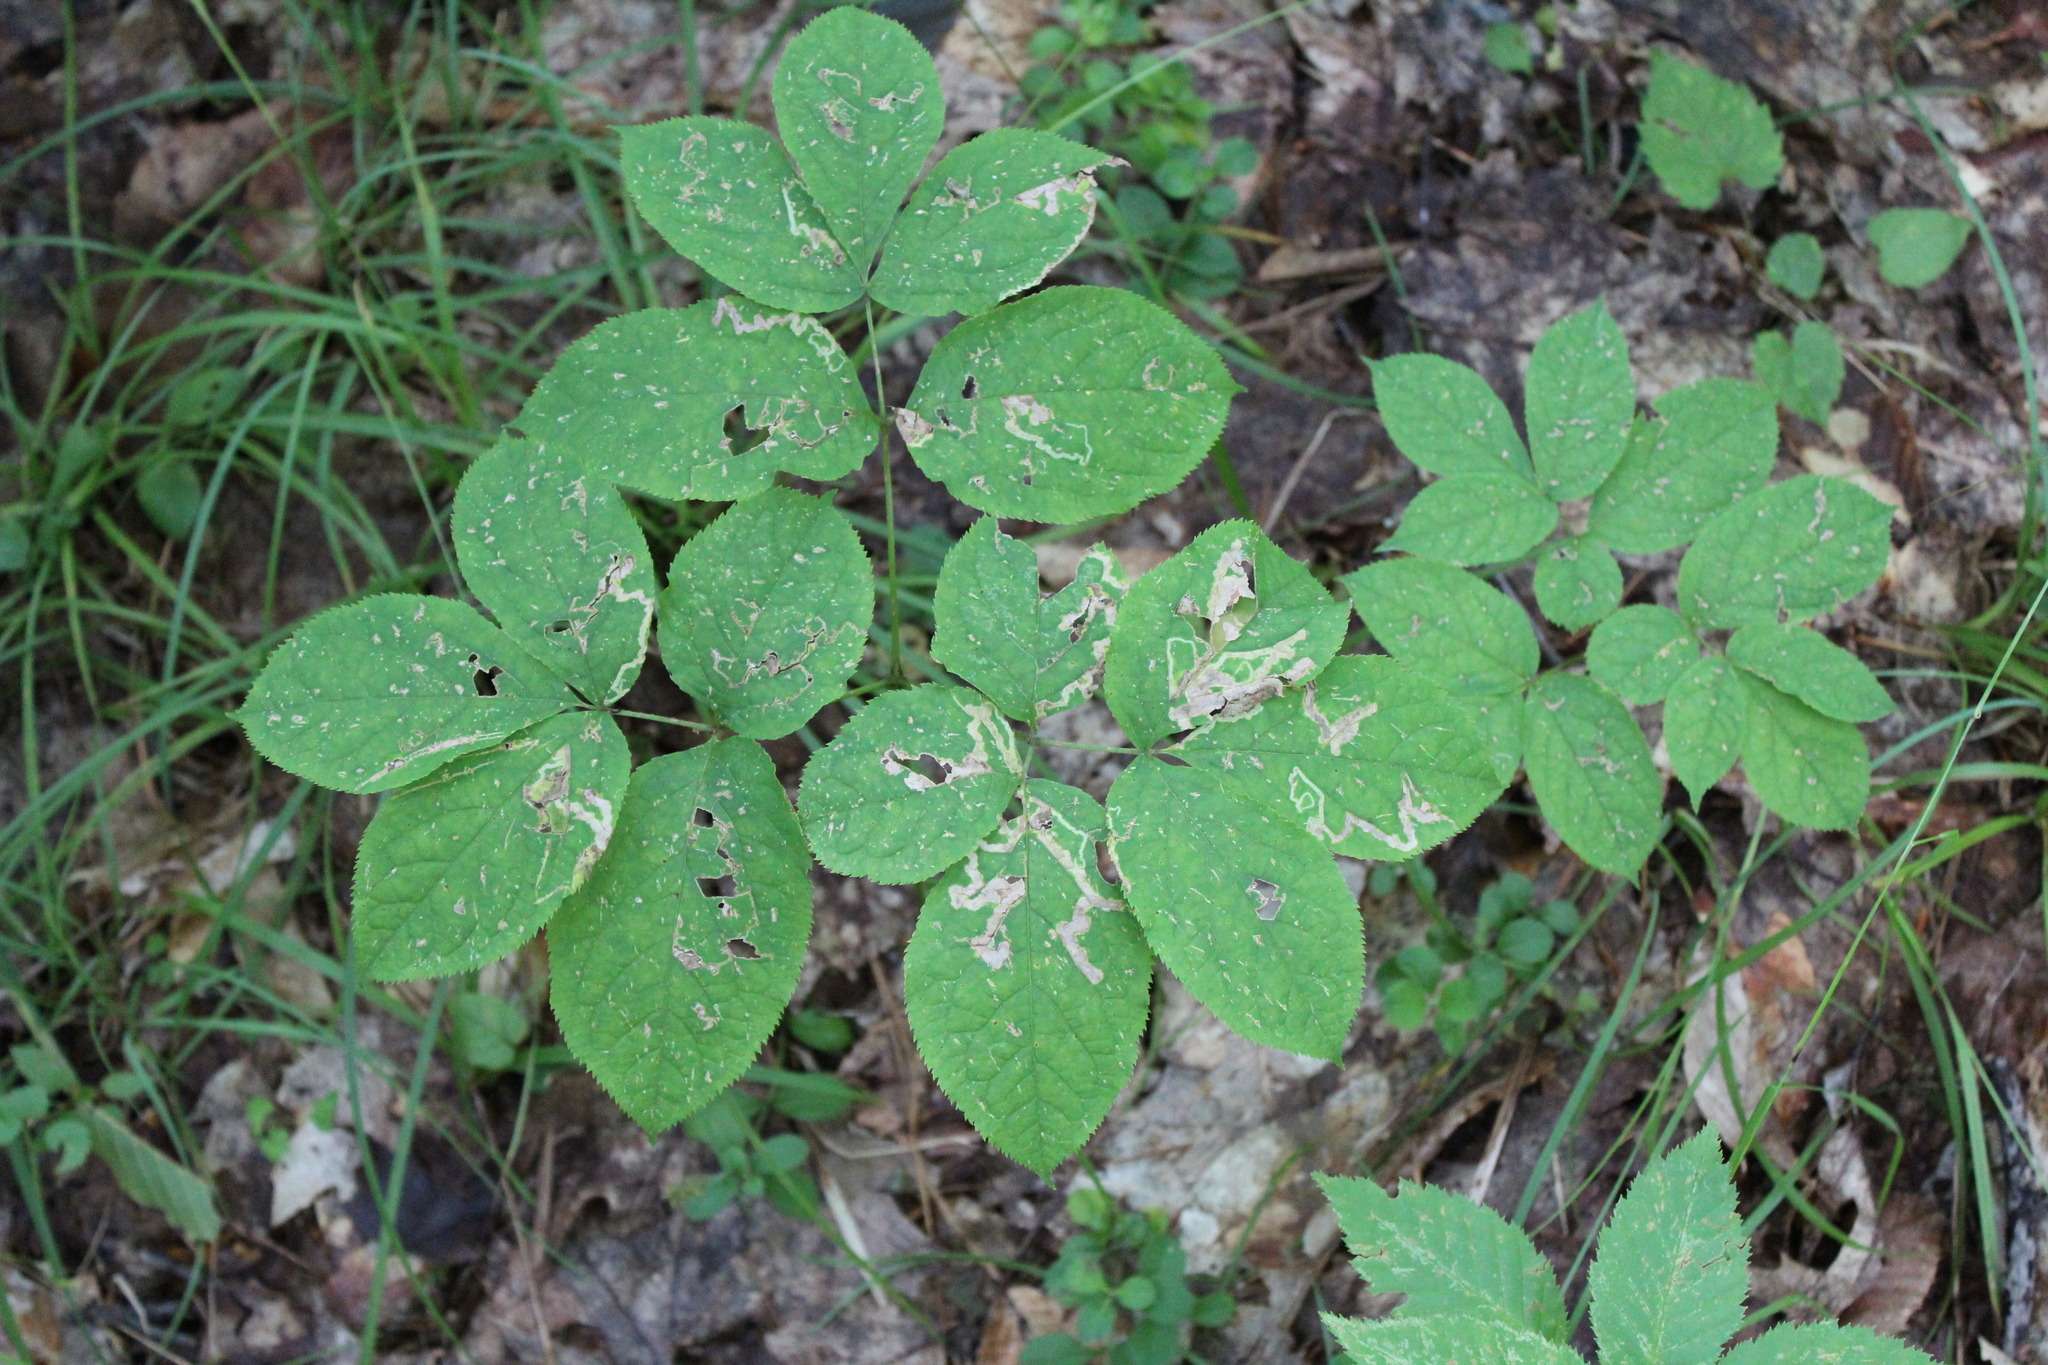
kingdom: Plantae
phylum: Tracheophyta
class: Magnoliopsida
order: Apiales
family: Araliaceae
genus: Aralia
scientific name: Aralia nudicaulis
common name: Wild sarsaparilla
